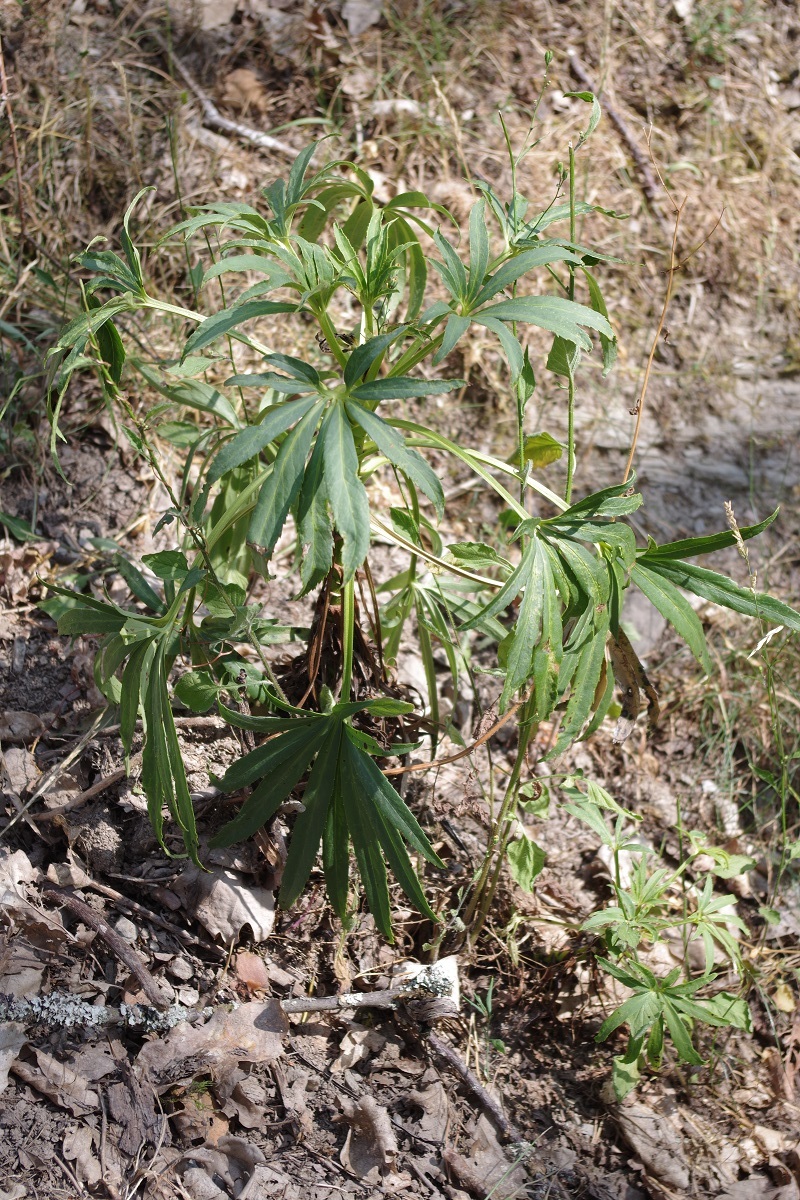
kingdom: Plantae
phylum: Tracheophyta
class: Magnoliopsida
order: Ranunculales
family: Ranunculaceae
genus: Helleborus
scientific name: Helleborus foetidus
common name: Stinking hellebore
